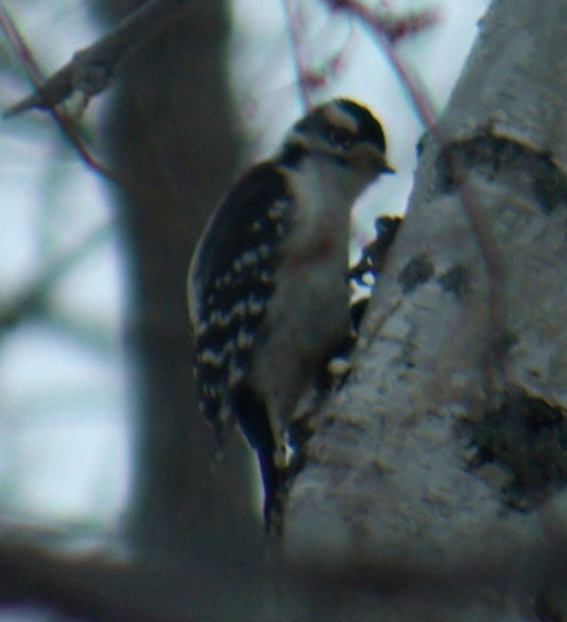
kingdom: Animalia
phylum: Chordata
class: Aves
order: Piciformes
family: Picidae
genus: Dryobates
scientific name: Dryobates pubescens
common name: Downy woodpecker
